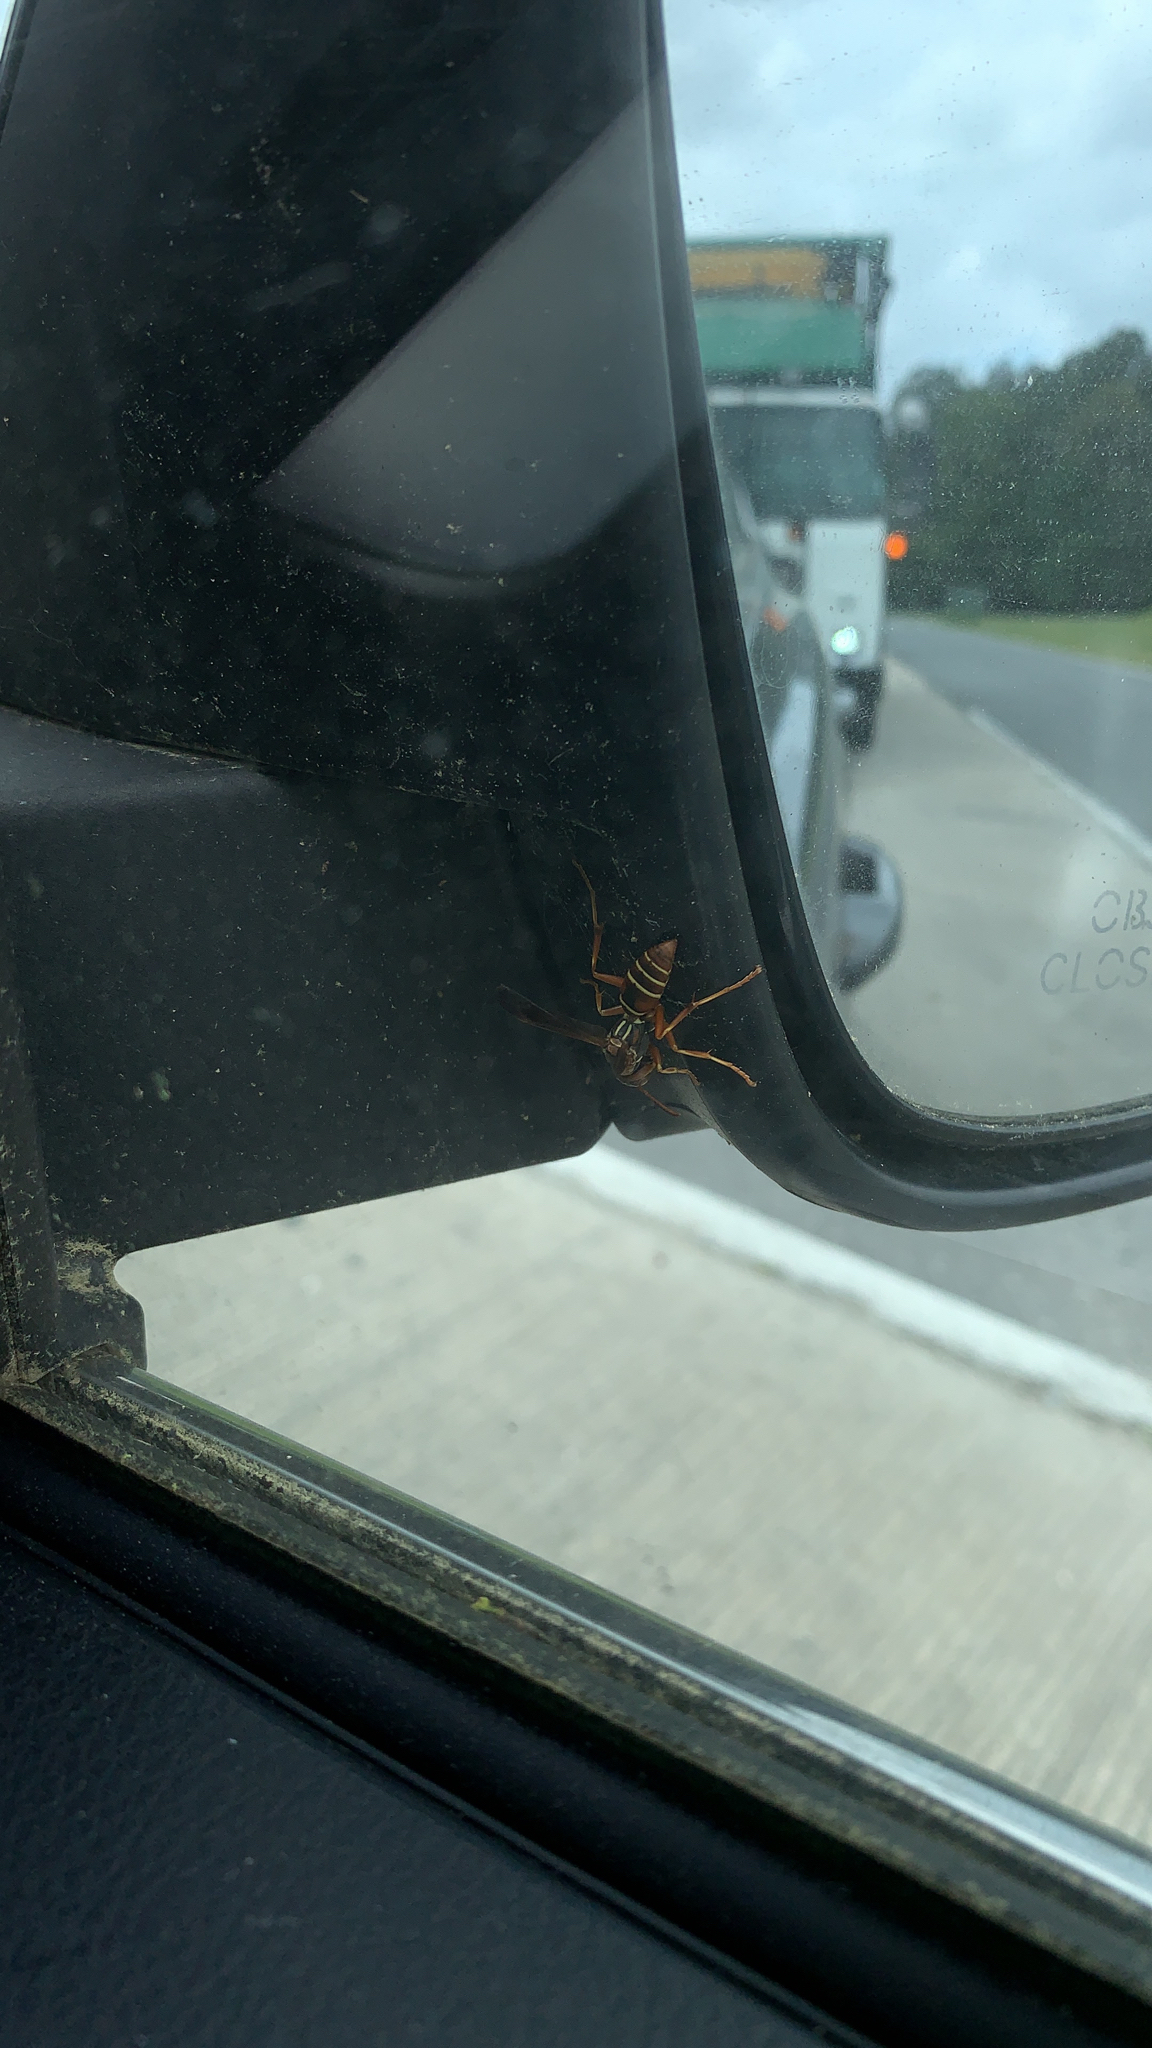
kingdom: Animalia
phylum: Arthropoda
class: Insecta
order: Hymenoptera
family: Eumenidae
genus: Polistes
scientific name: Polistes fuscatus
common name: Dark paper wasp
